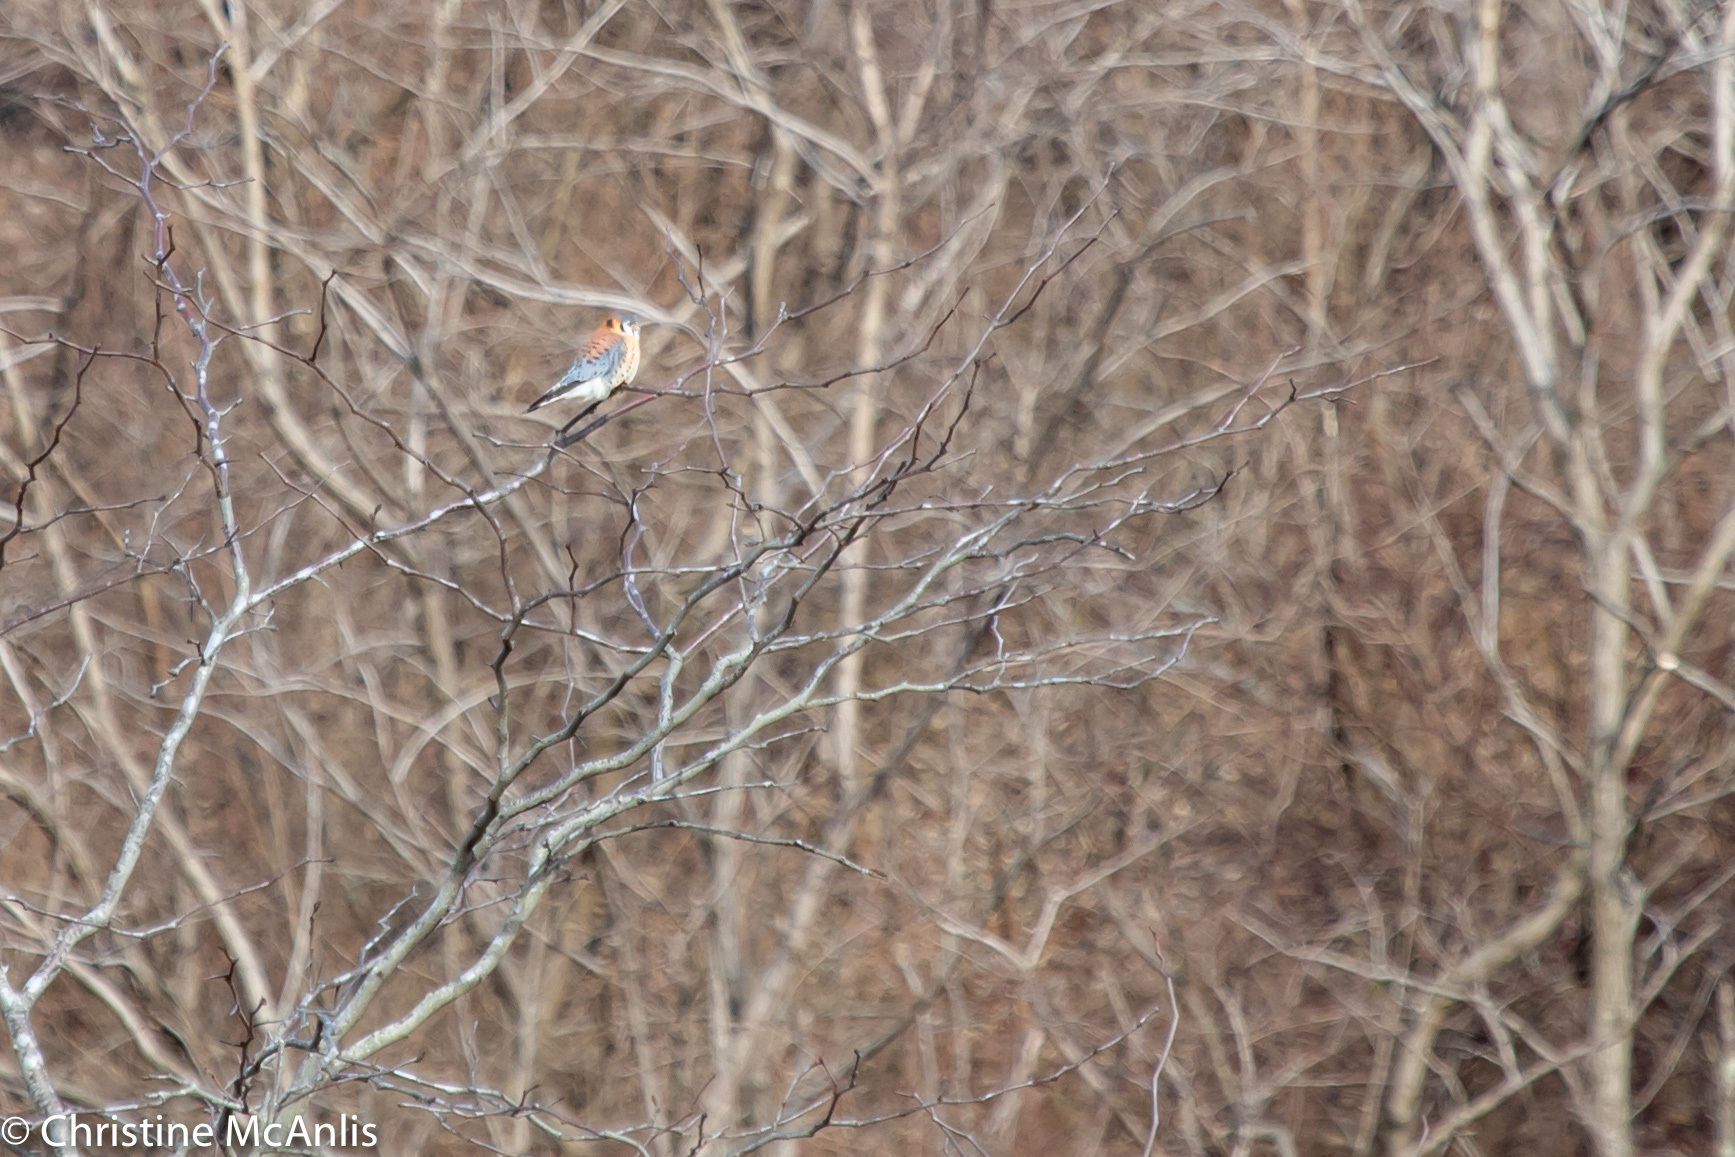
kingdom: Animalia
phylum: Chordata
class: Aves
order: Falconiformes
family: Falconidae
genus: Falco
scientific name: Falco sparverius
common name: American kestrel
